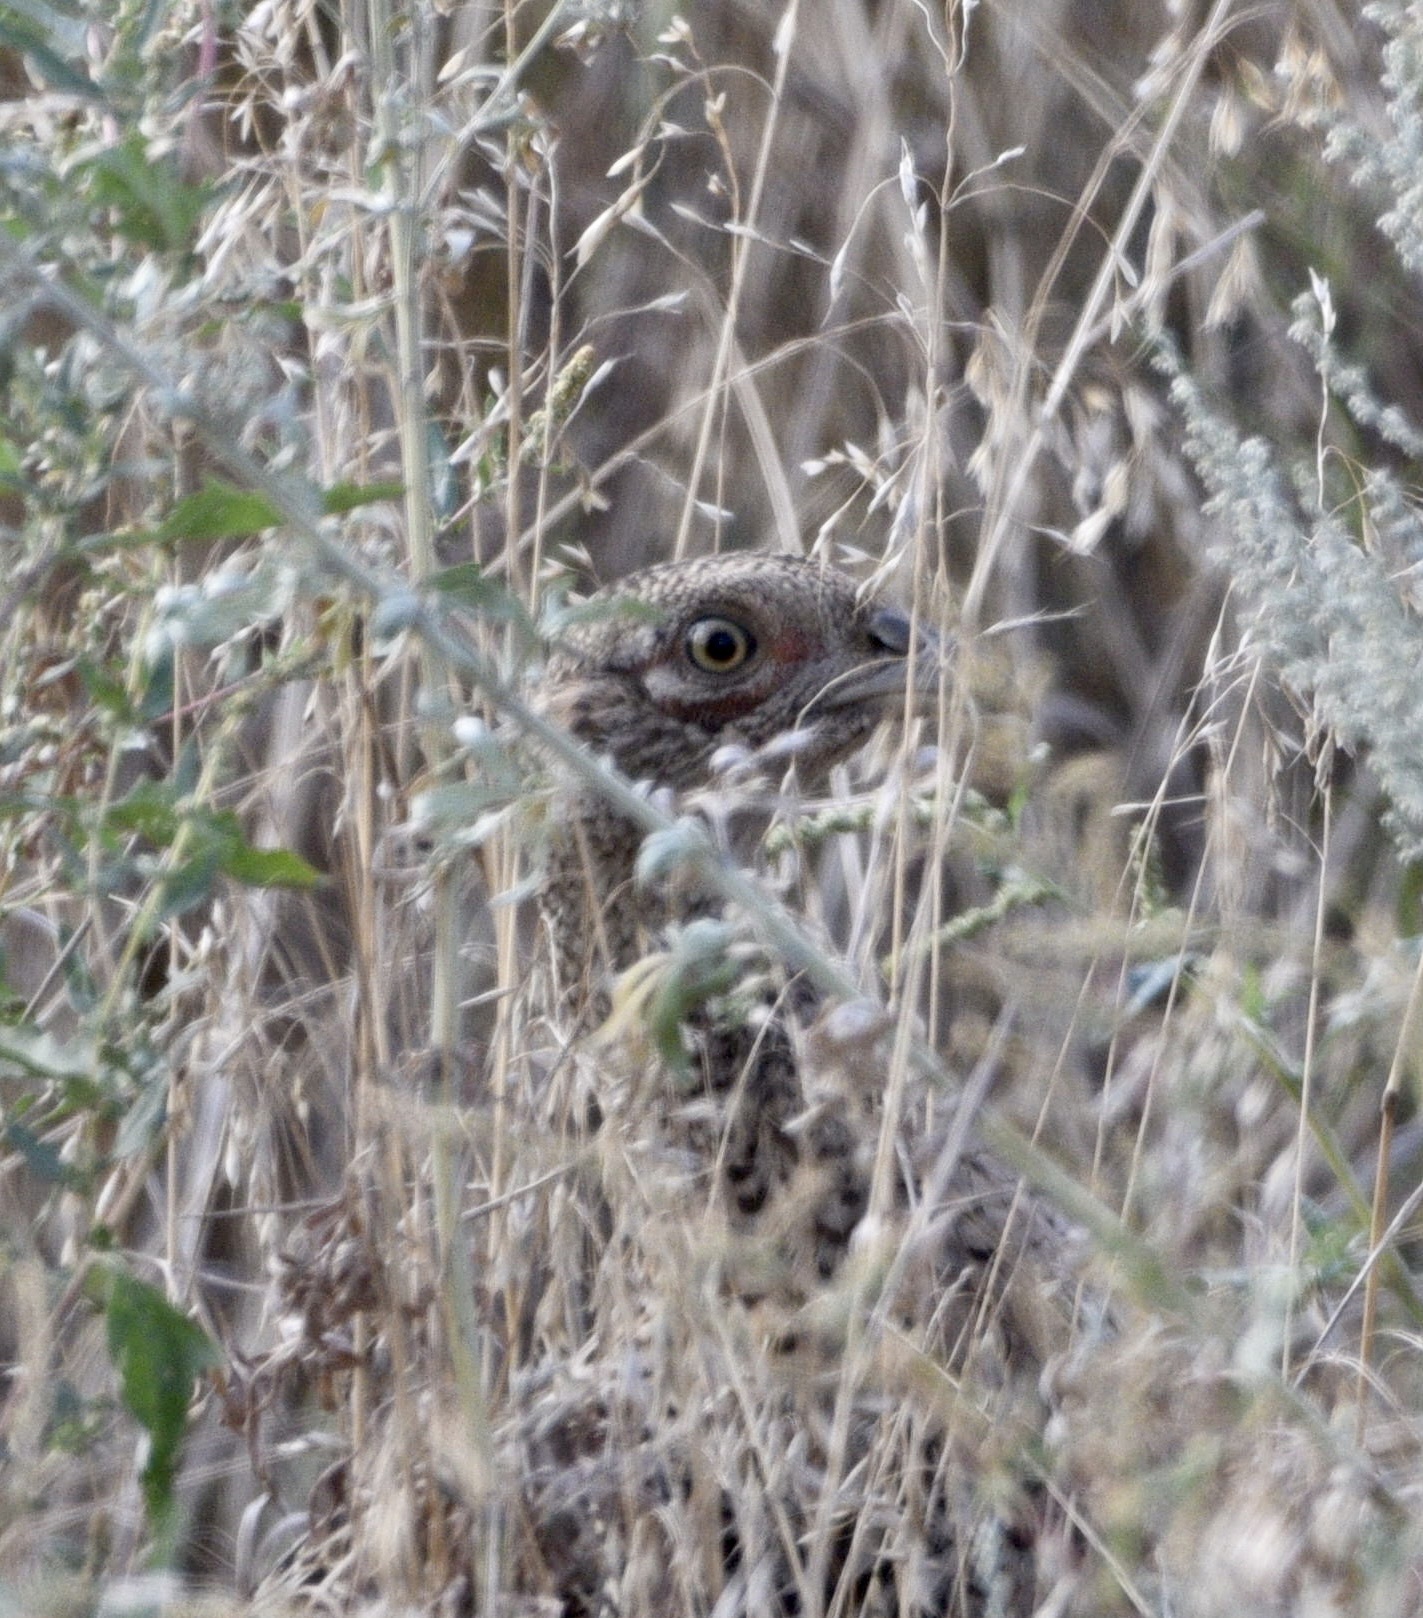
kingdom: Animalia
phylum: Chordata
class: Aves
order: Galliformes
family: Phasianidae
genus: Phasianus
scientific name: Phasianus colchicus
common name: Common pheasant
